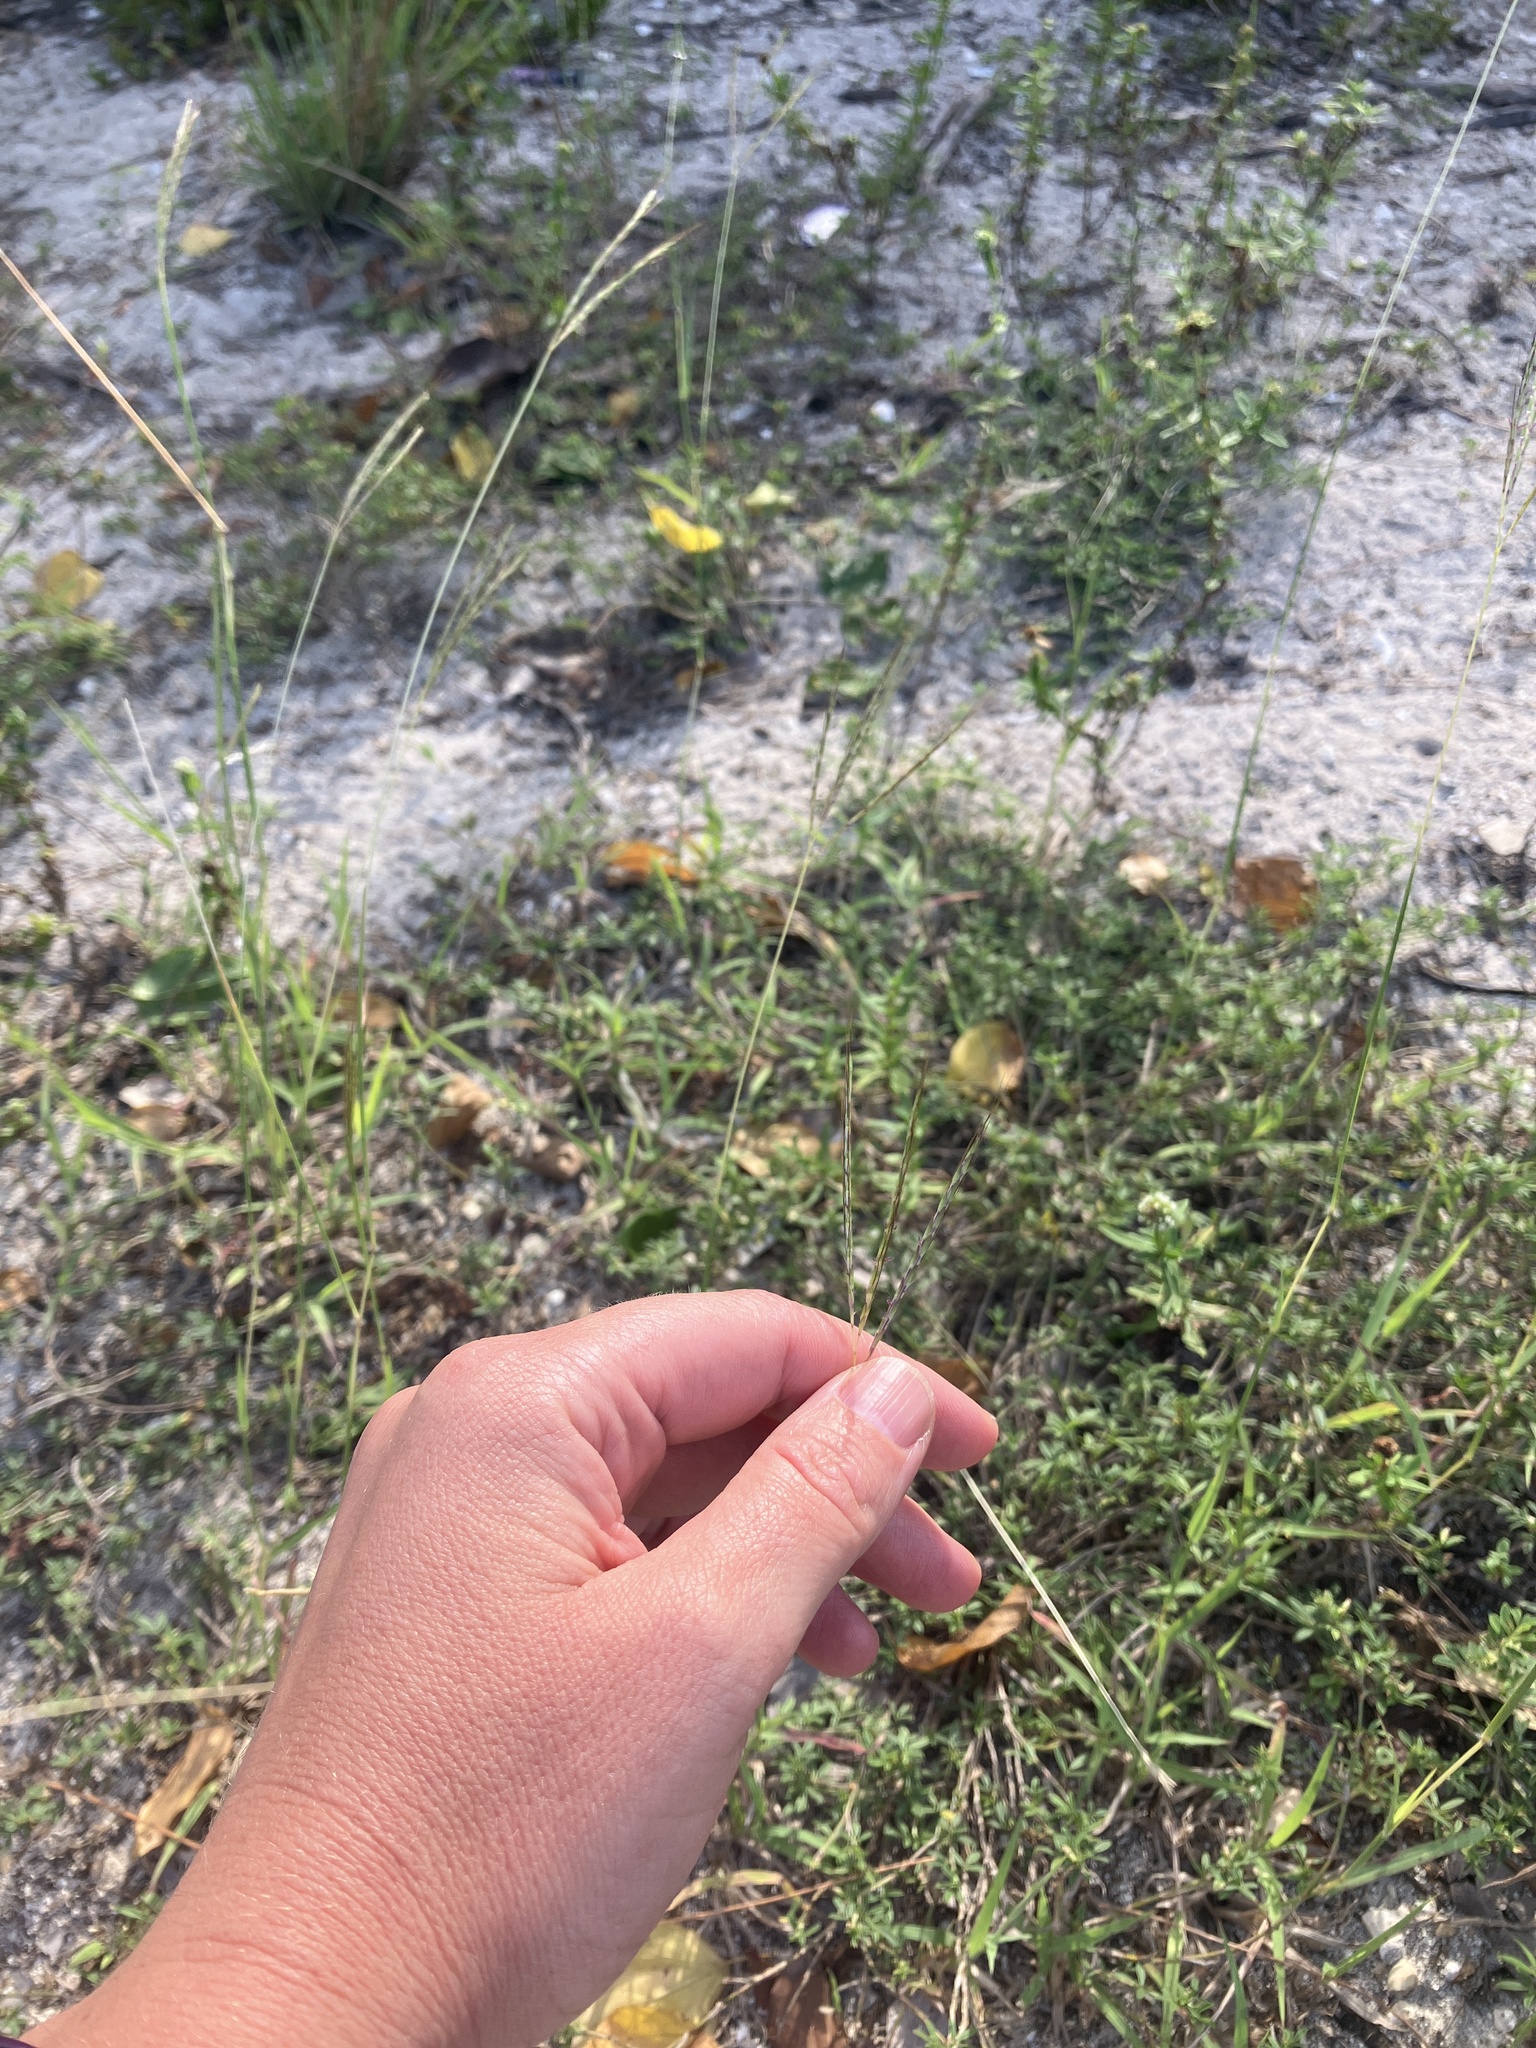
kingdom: Plantae
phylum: Tracheophyta
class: Liliopsida
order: Poales
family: Poaceae
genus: Bothriochloa
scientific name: Bothriochloa pertusa
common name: Pitted beardgrass
